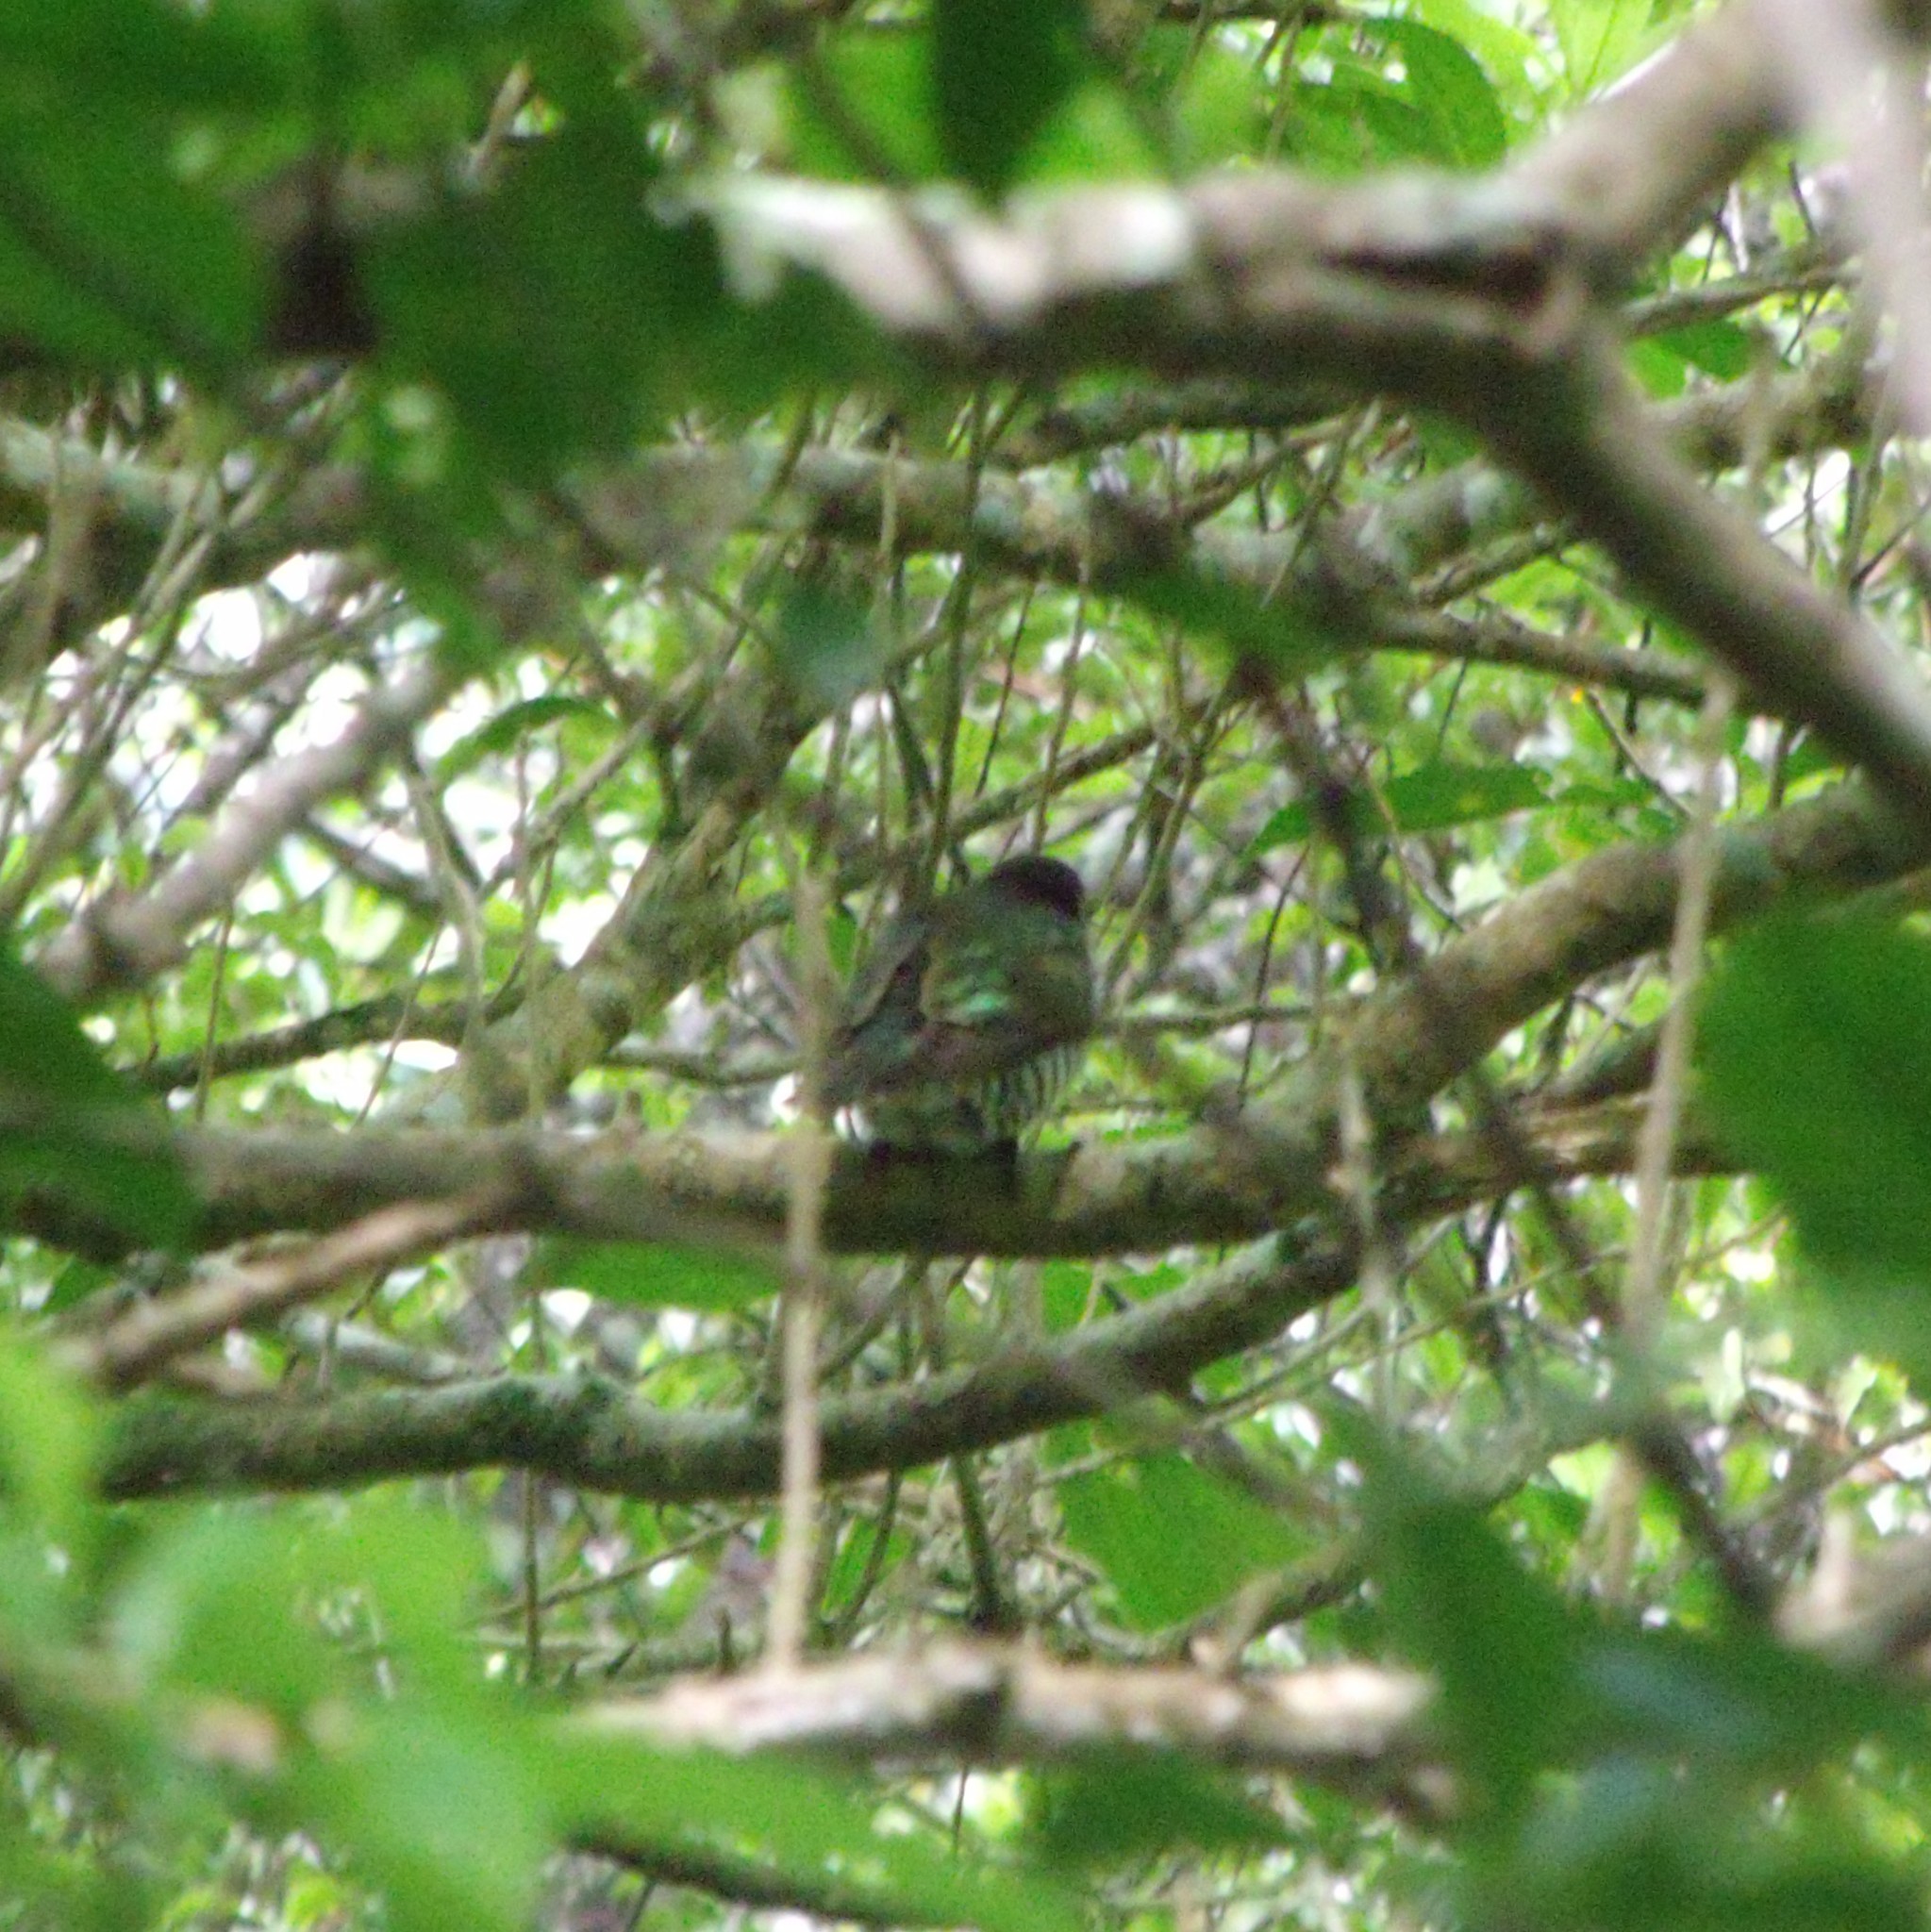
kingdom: Animalia
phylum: Chordata
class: Aves
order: Cuculiformes
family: Cuculidae
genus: Chrysococcyx
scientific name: Chrysococcyx lucidus
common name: Shining bronze cuckoo
